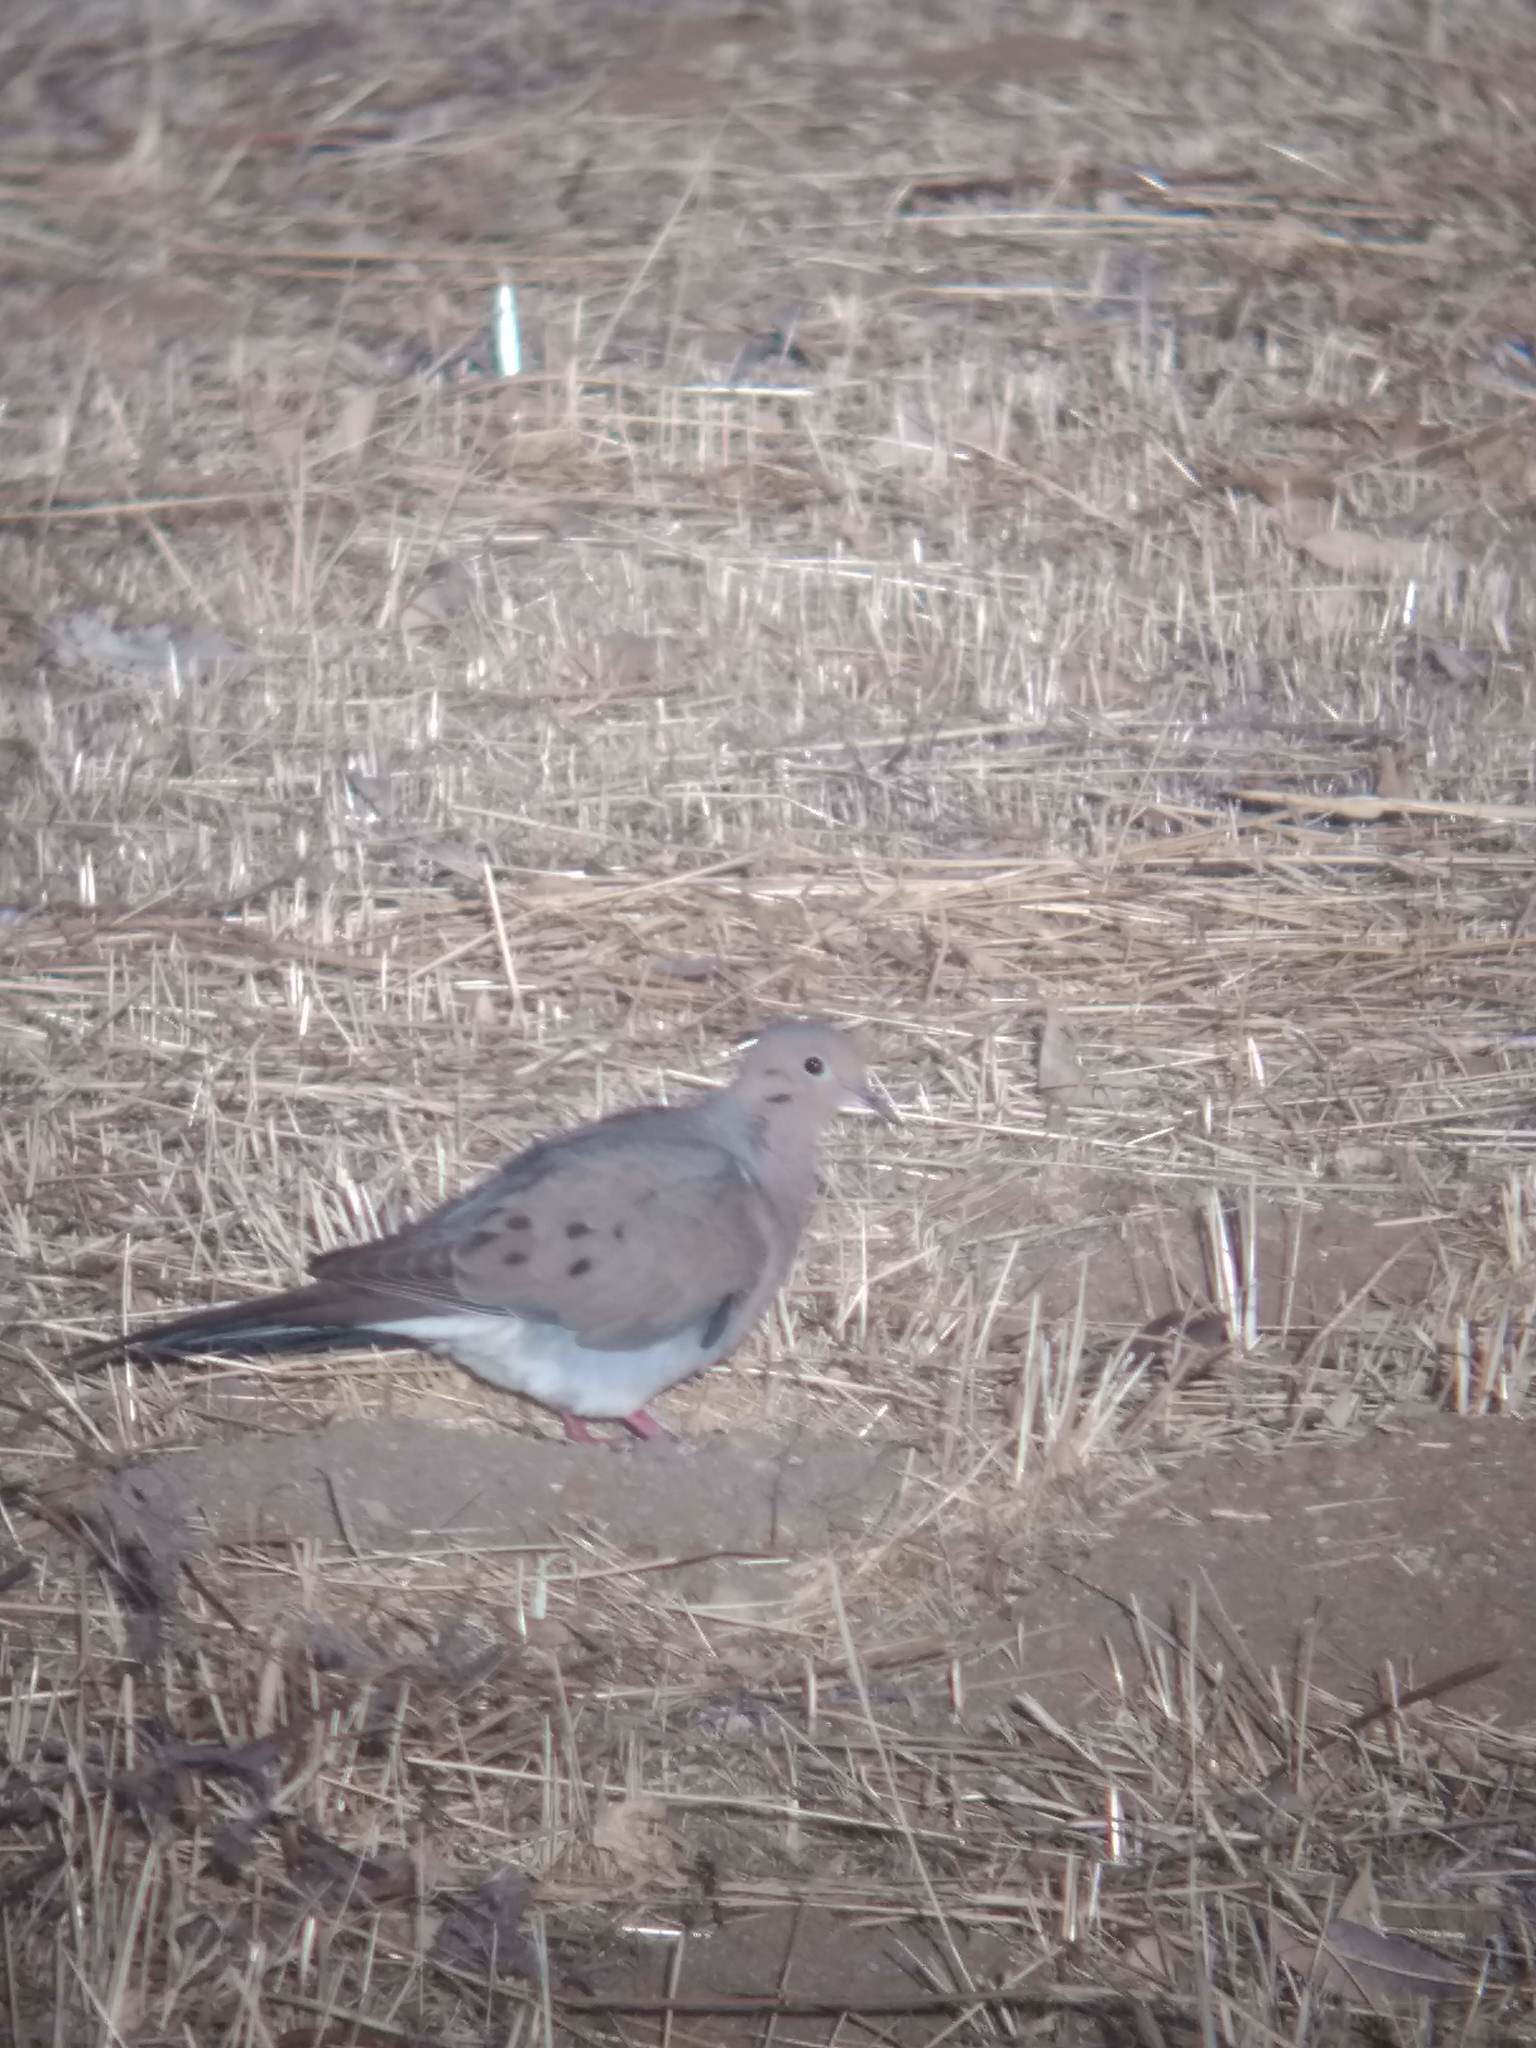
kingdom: Animalia
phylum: Chordata
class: Aves
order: Columbiformes
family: Columbidae
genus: Zenaida
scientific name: Zenaida macroura
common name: Mourning dove
